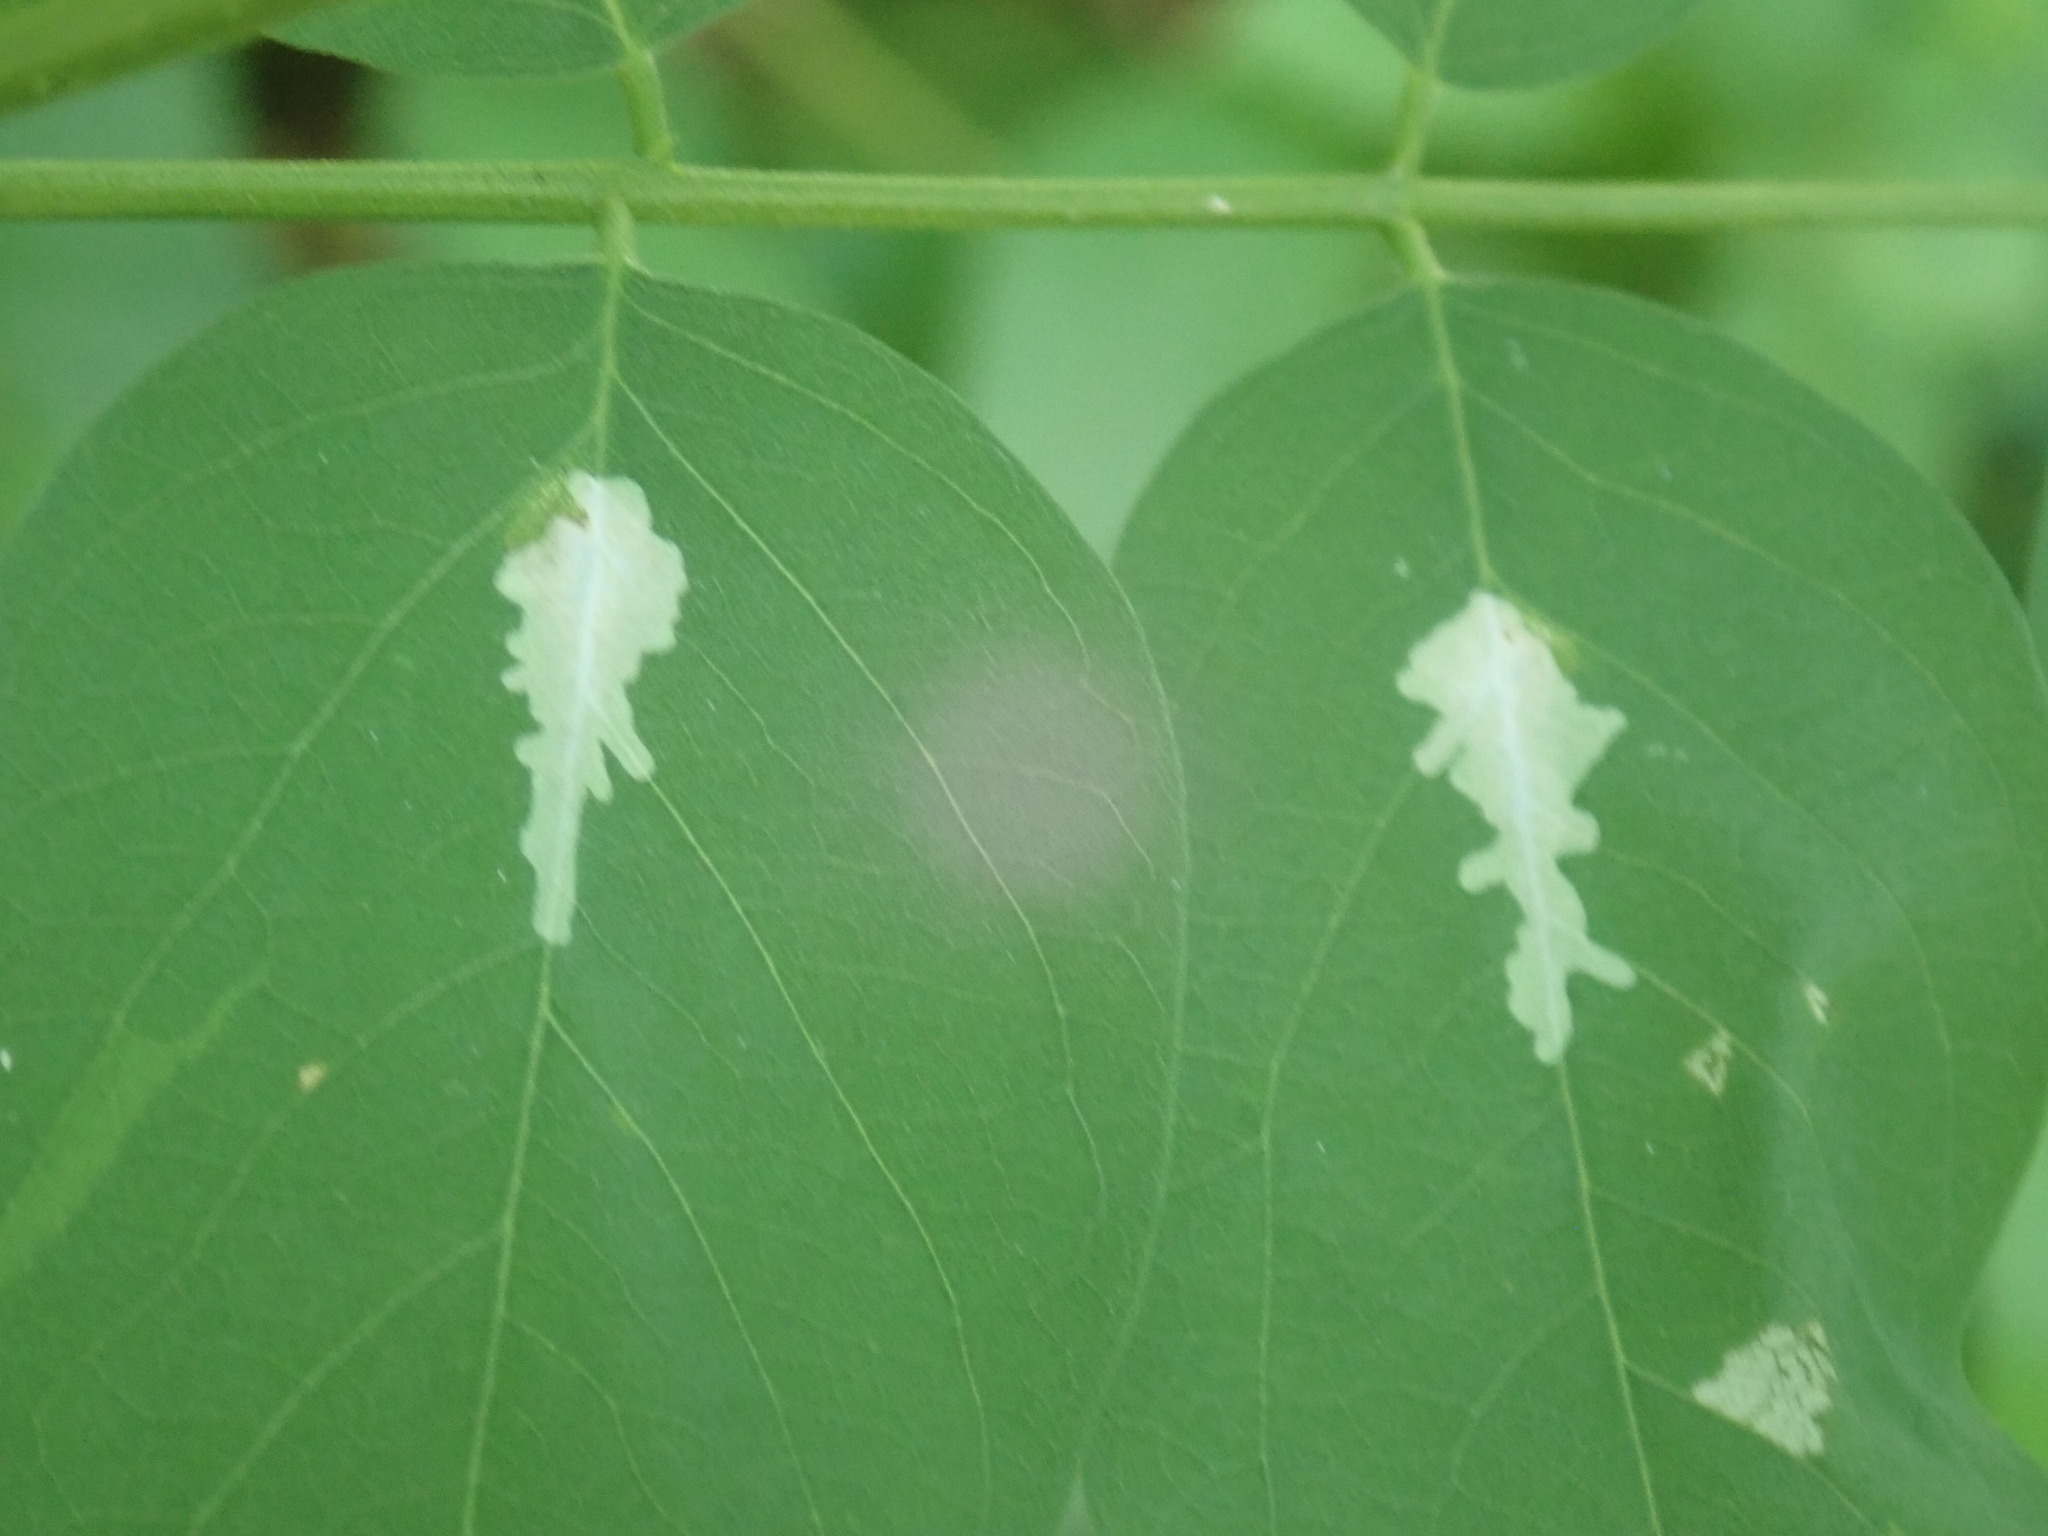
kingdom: Animalia
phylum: Arthropoda
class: Insecta
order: Lepidoptera
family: Gracillariidae
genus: Parectopa
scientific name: Parectopa robiniella
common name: Locust digitate leafminer
